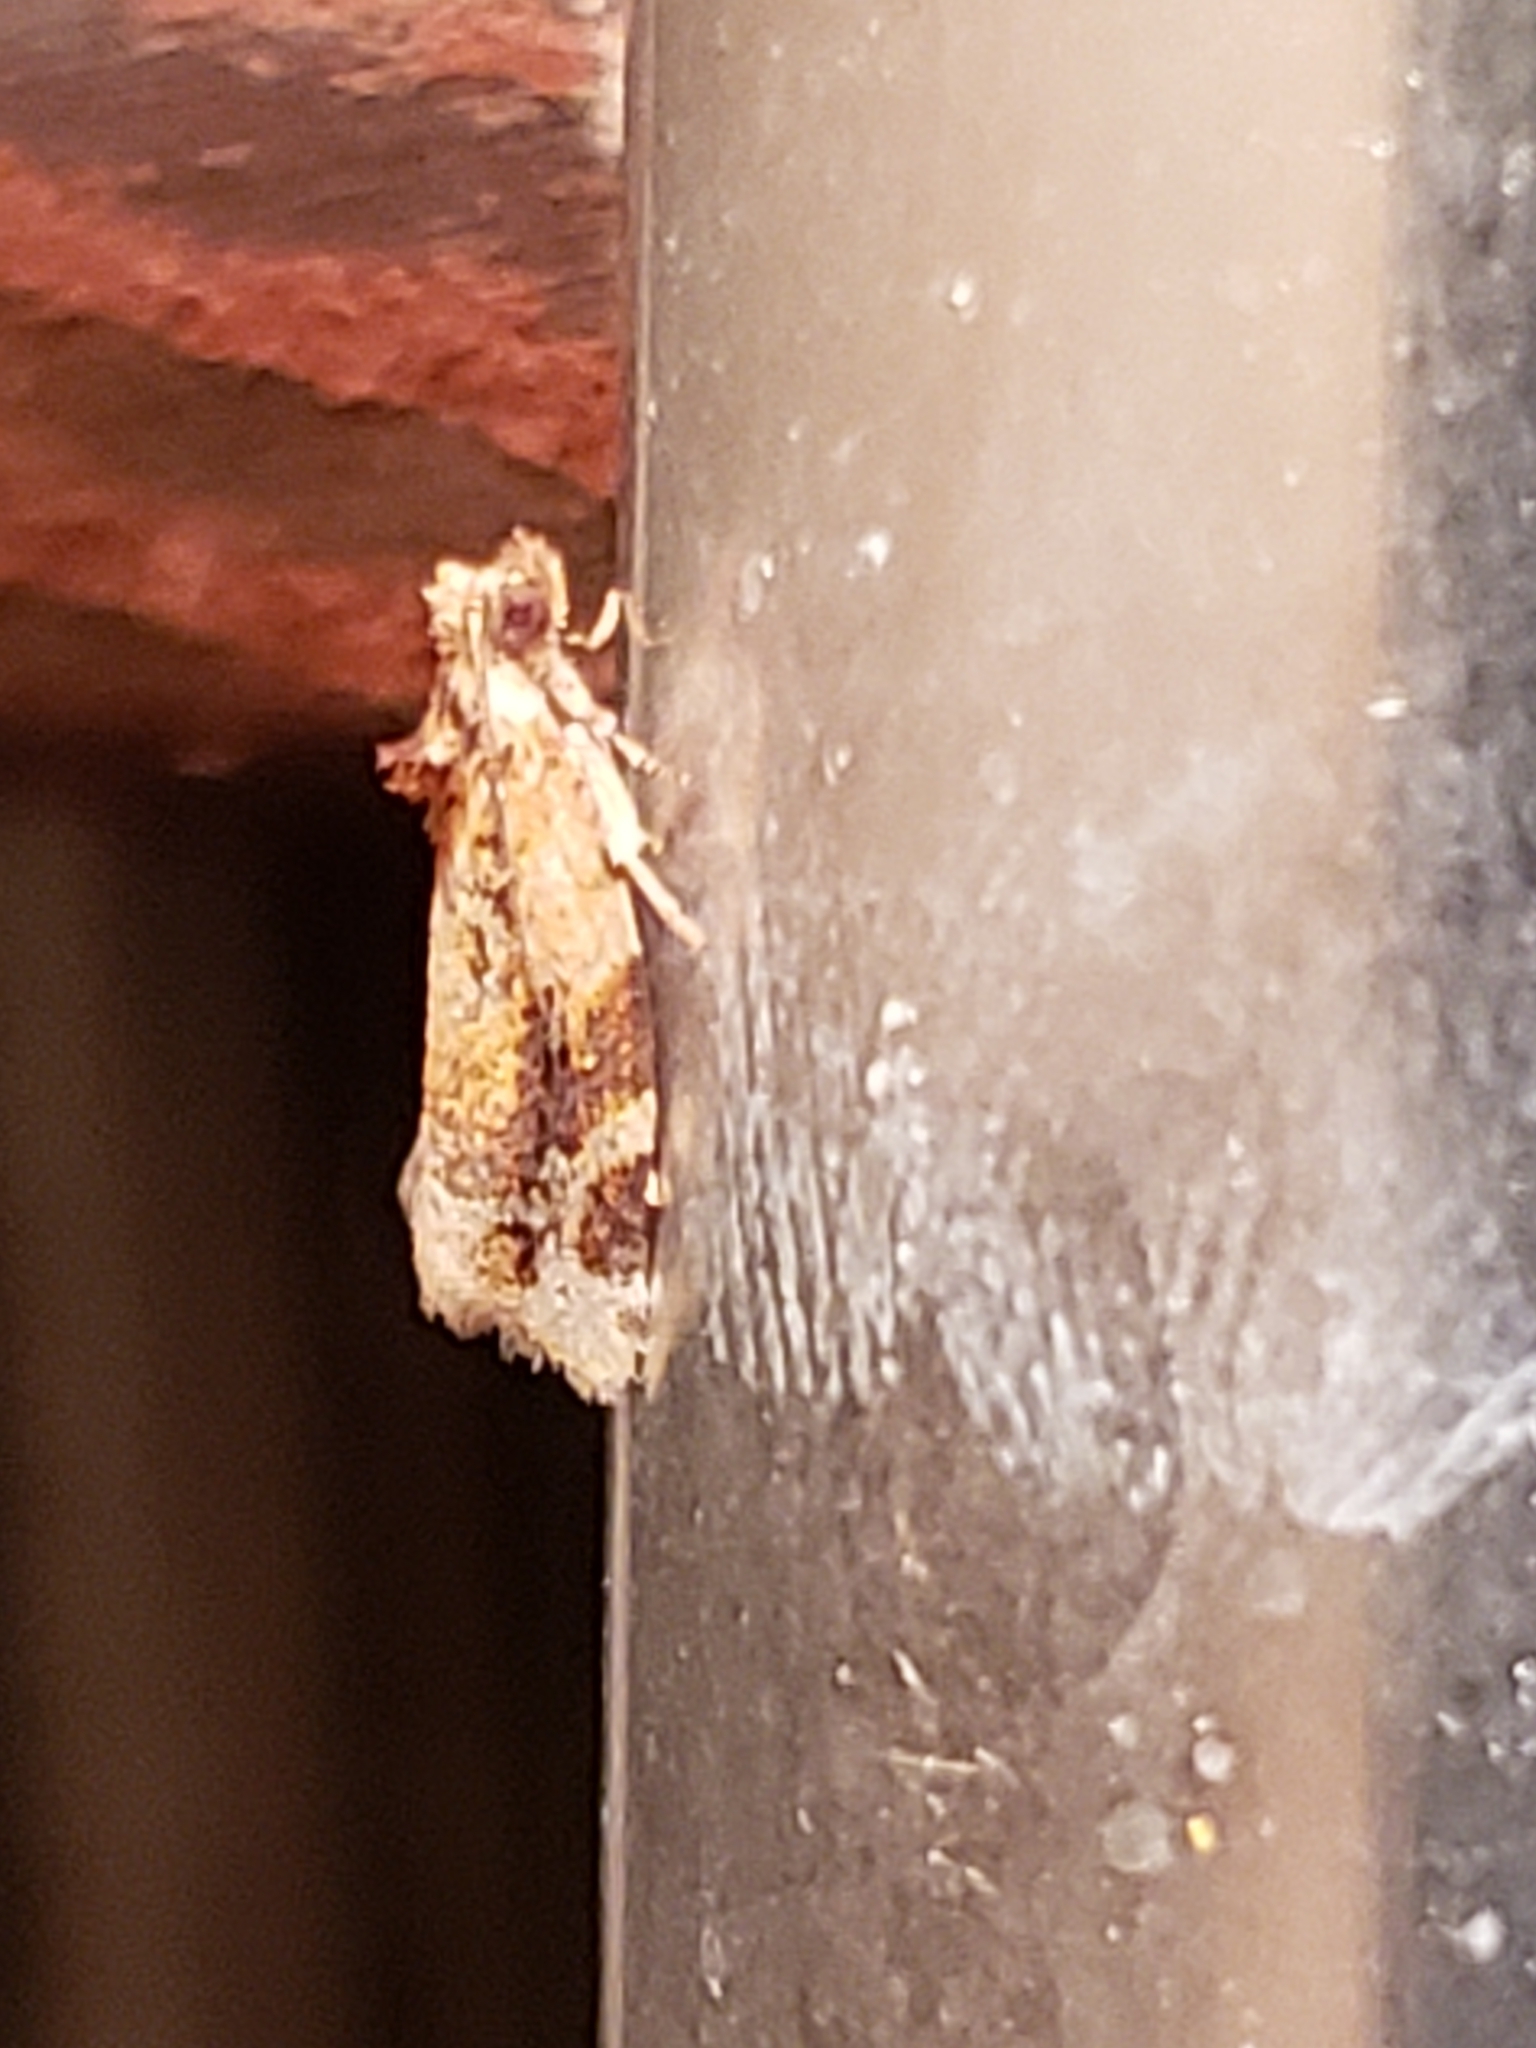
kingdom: Animalia
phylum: Arthropoda
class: Insecta
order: Lepidoptera
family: Tortricidae
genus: Argyrotaenia
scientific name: Argyrotaenia velutinana
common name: Red-banded leafroller moth
